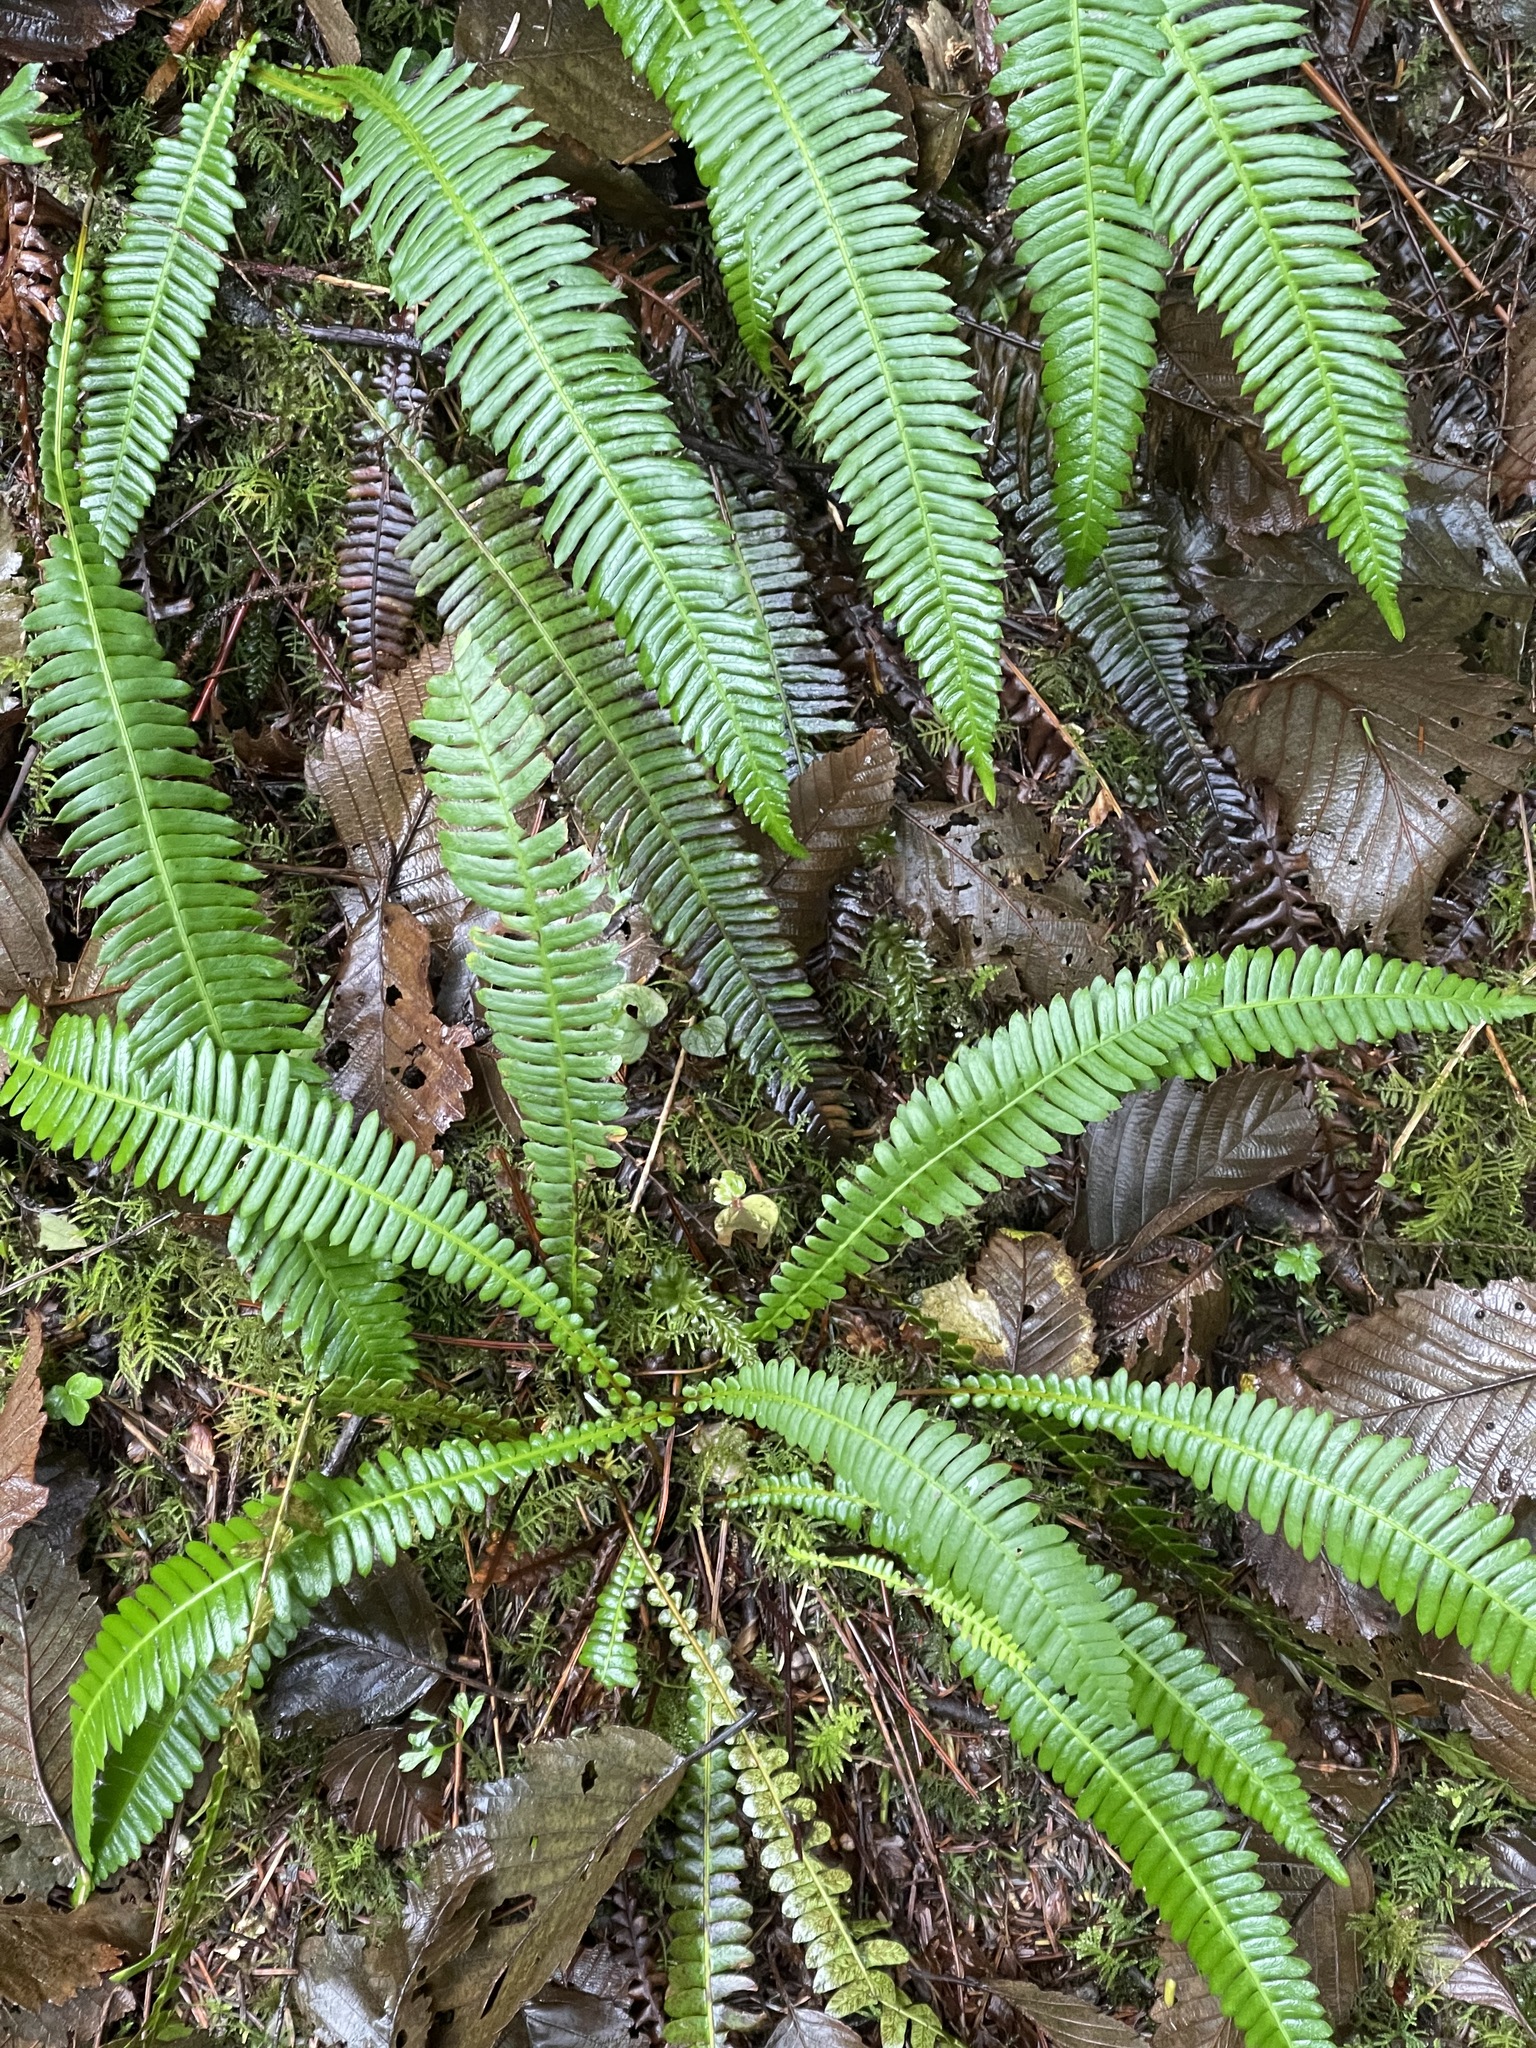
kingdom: Plantae
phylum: Tracheophyta
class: Polypodiopsida
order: Polypodiales
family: Blechnaceae
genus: Struthiopteris
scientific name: Struthiopteris spicant
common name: Deer fern
